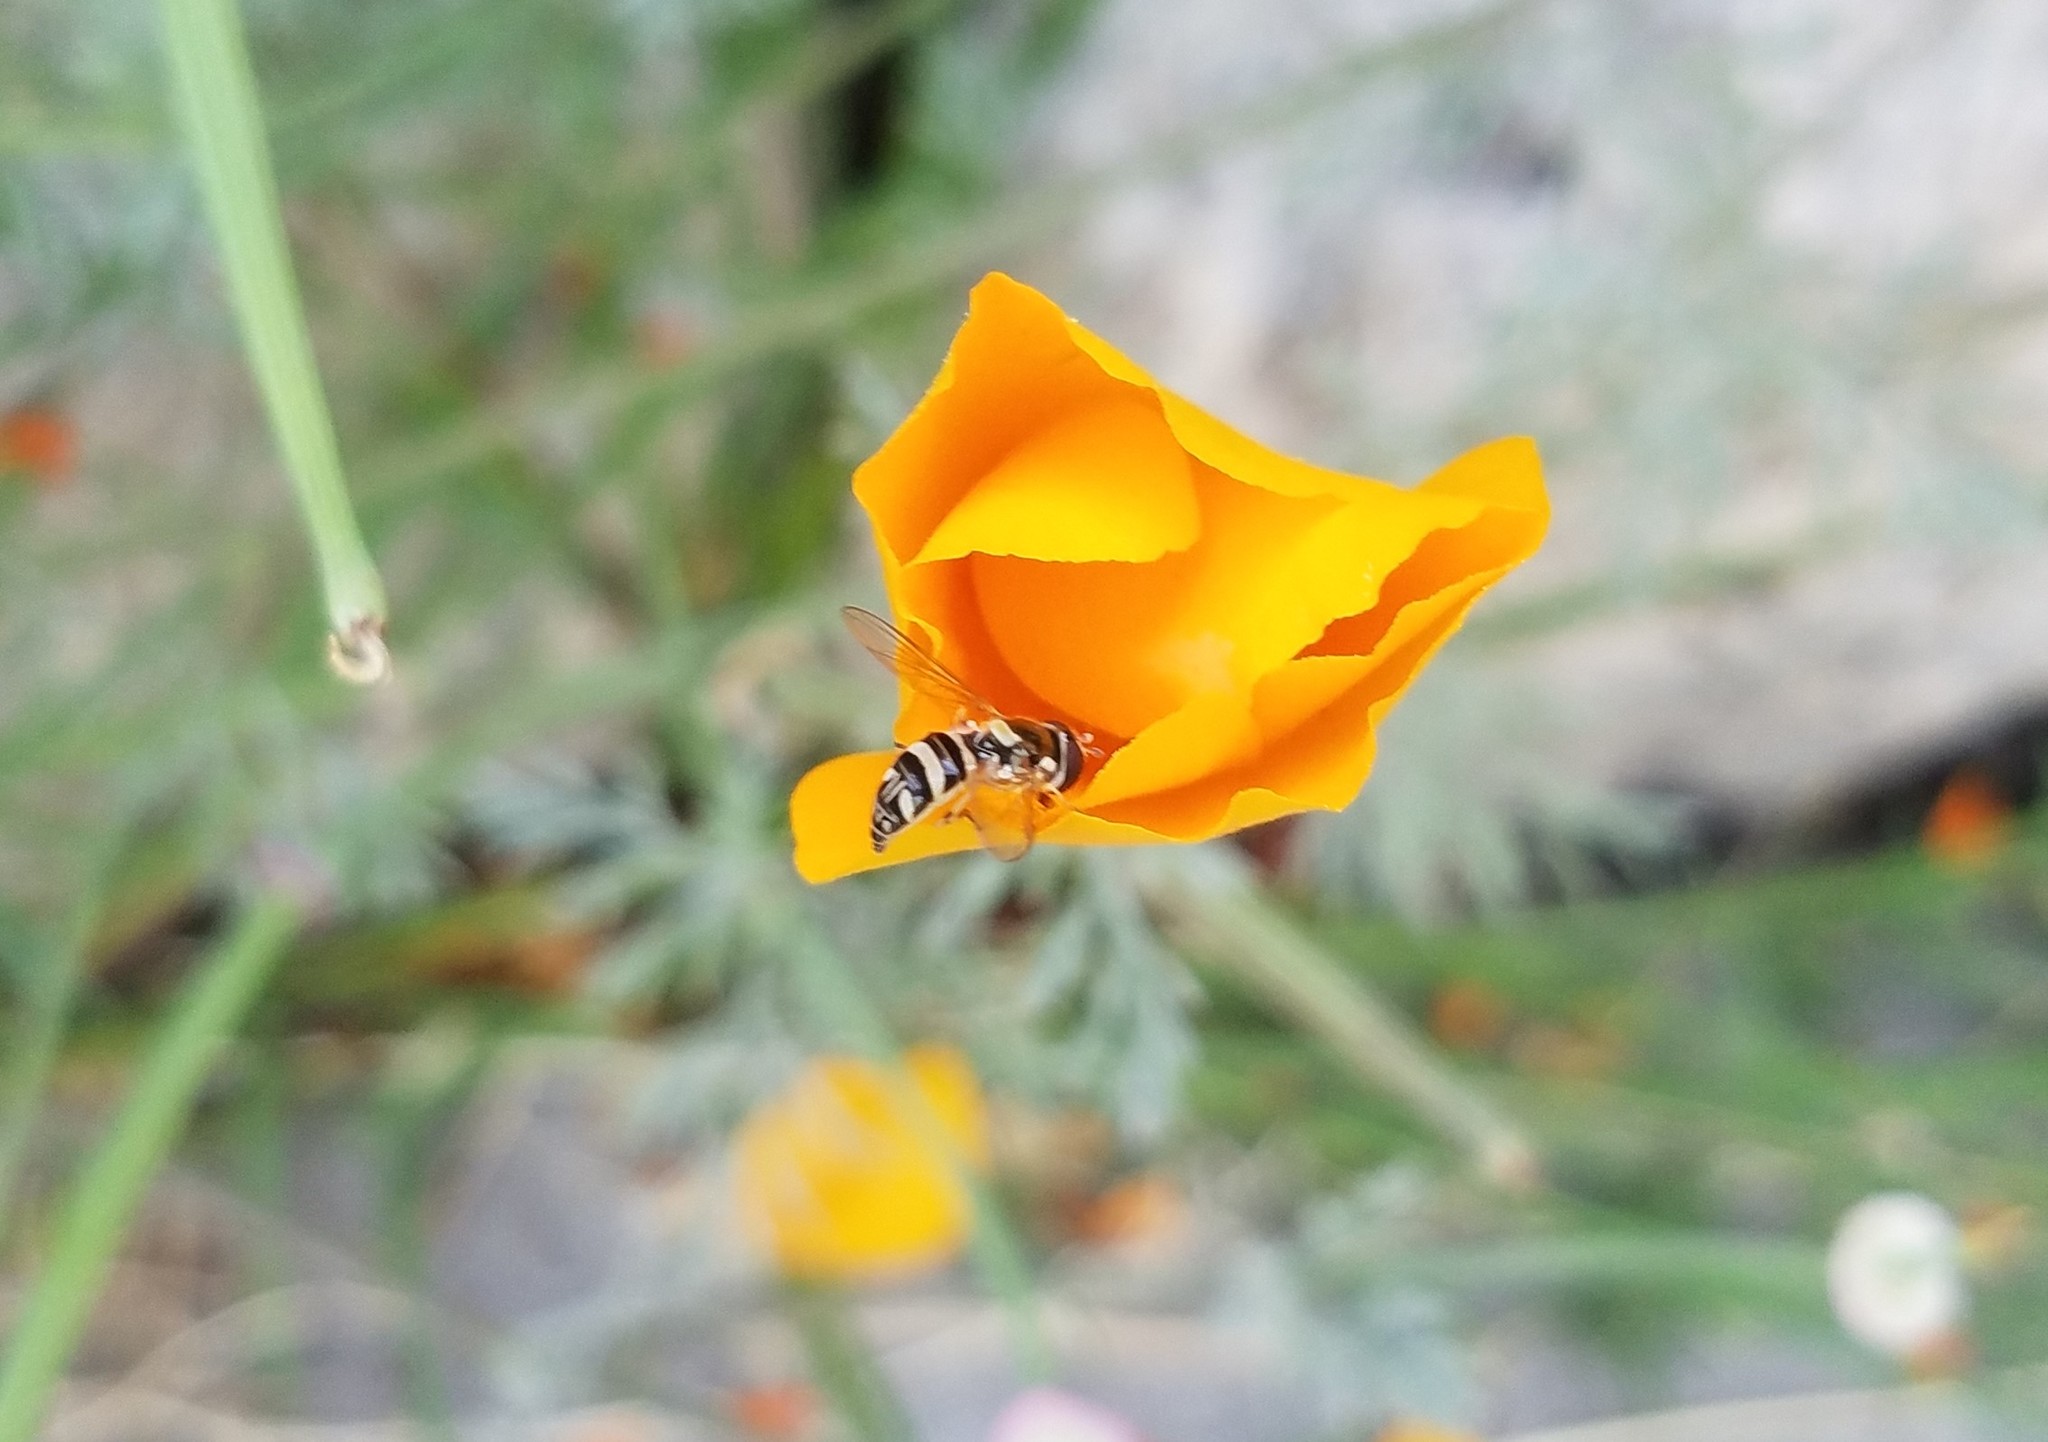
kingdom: Animalia
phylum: Arthropoda
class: Insecta
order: Diptera
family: Syrphidae
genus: Allograpta
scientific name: Allograpta exotica
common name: Syrphid fly
